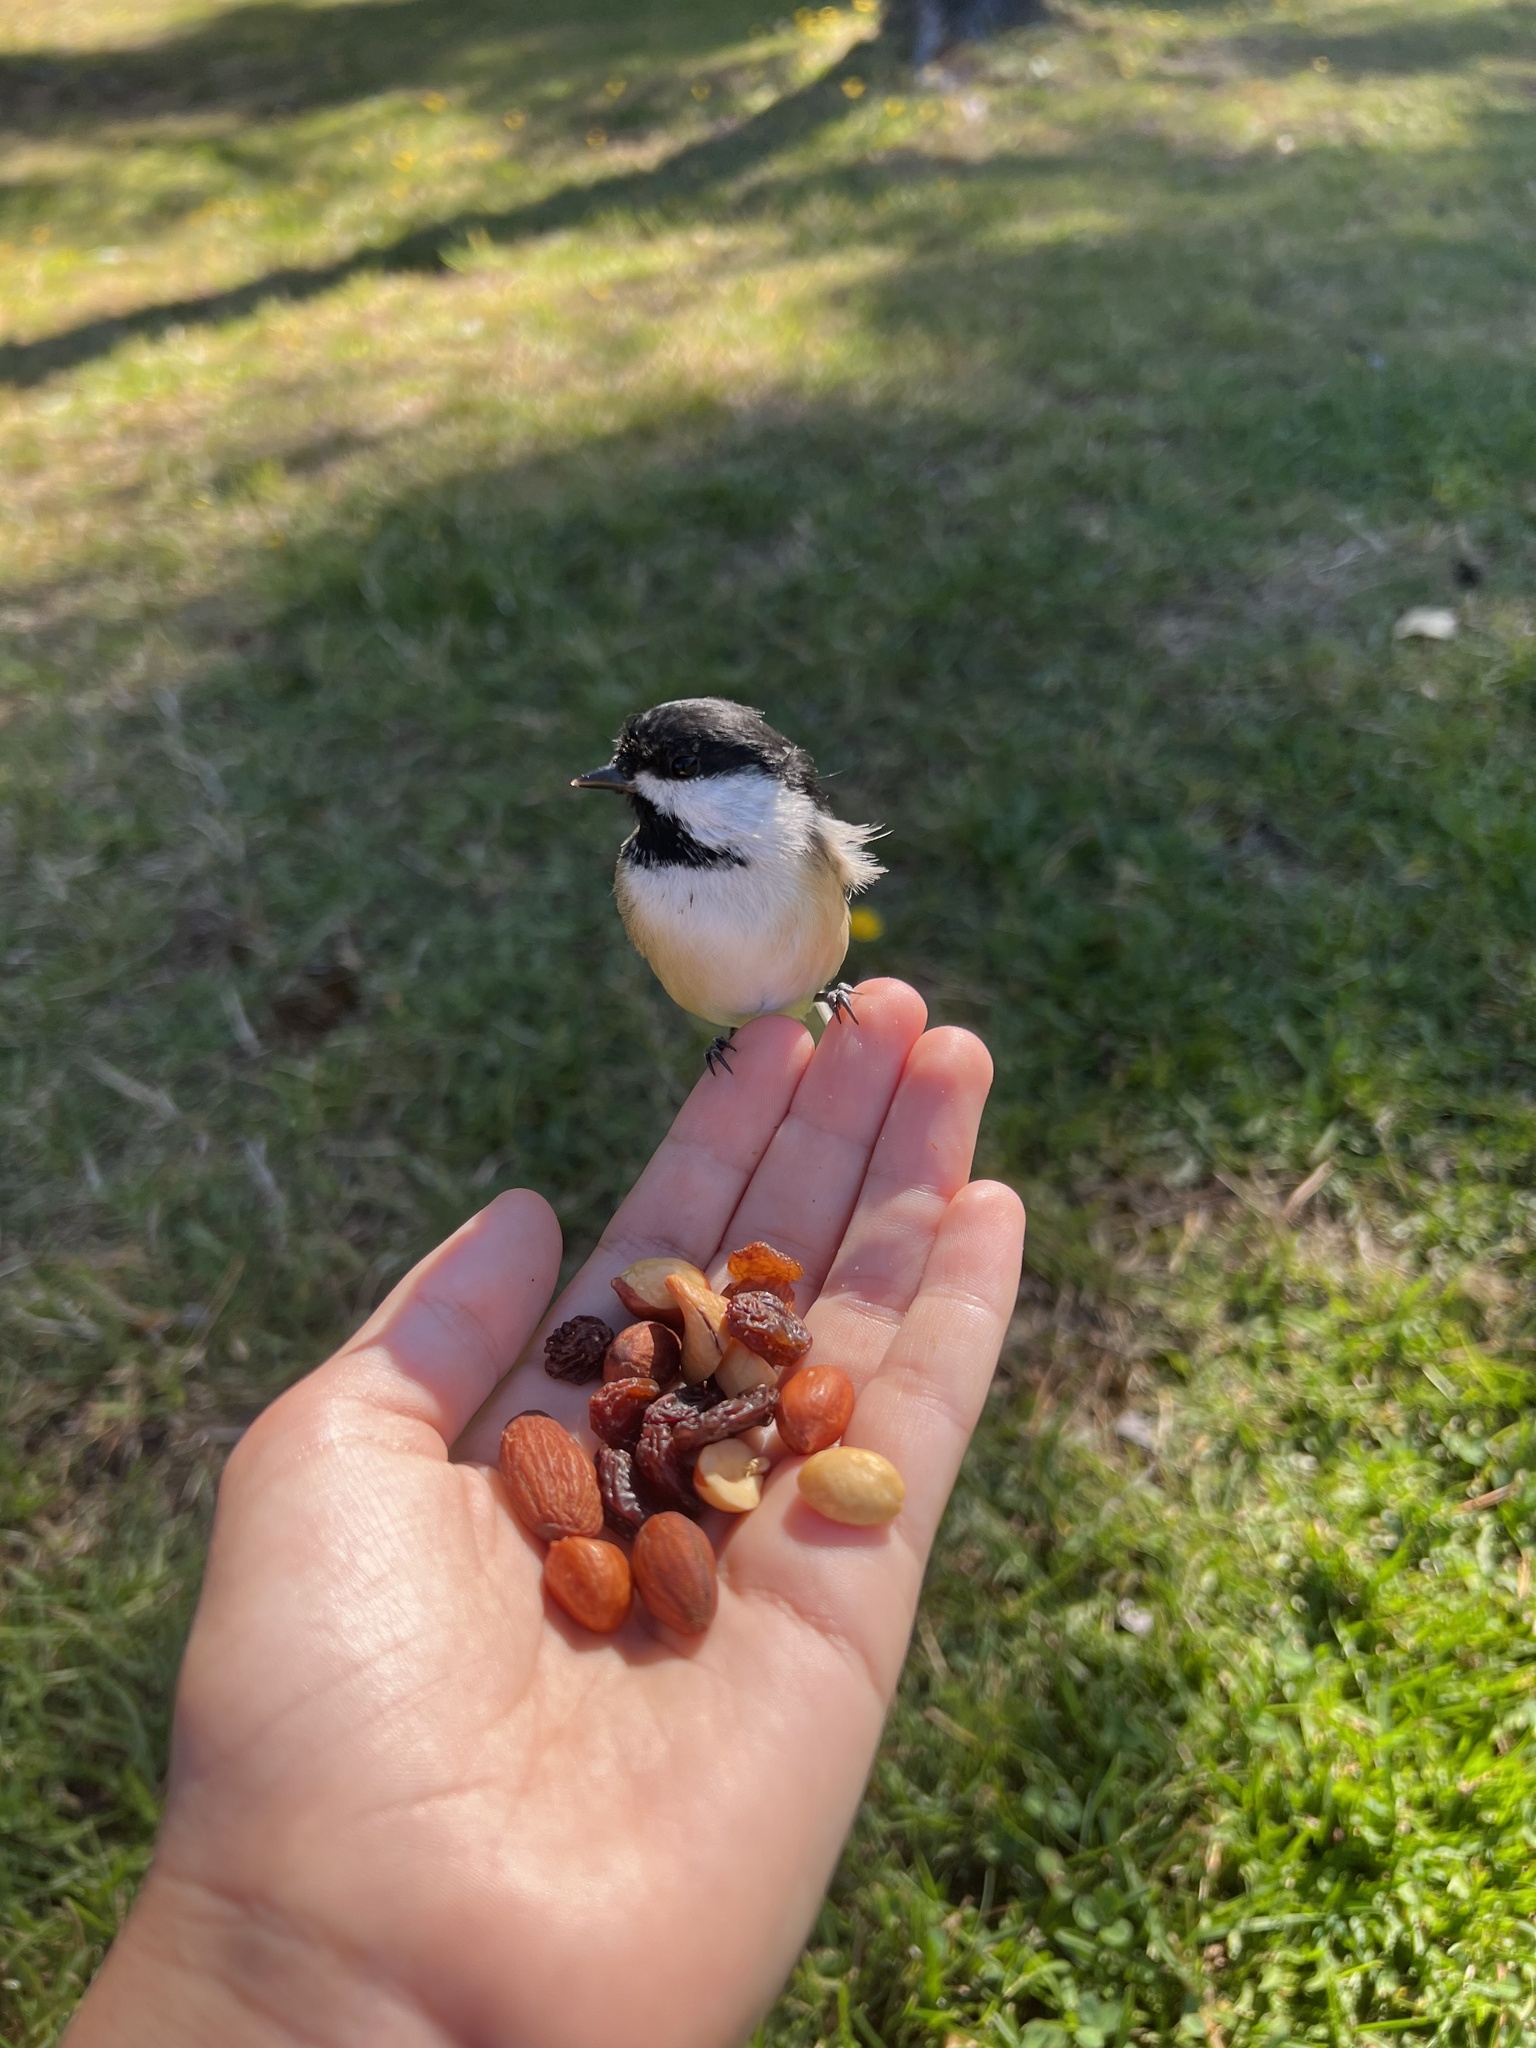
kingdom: Animalia
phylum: Chordata
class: Aves
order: Passeriformes
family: Paridae
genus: Poecile
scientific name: Poecile atricapillus
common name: Black-capped chickadee
